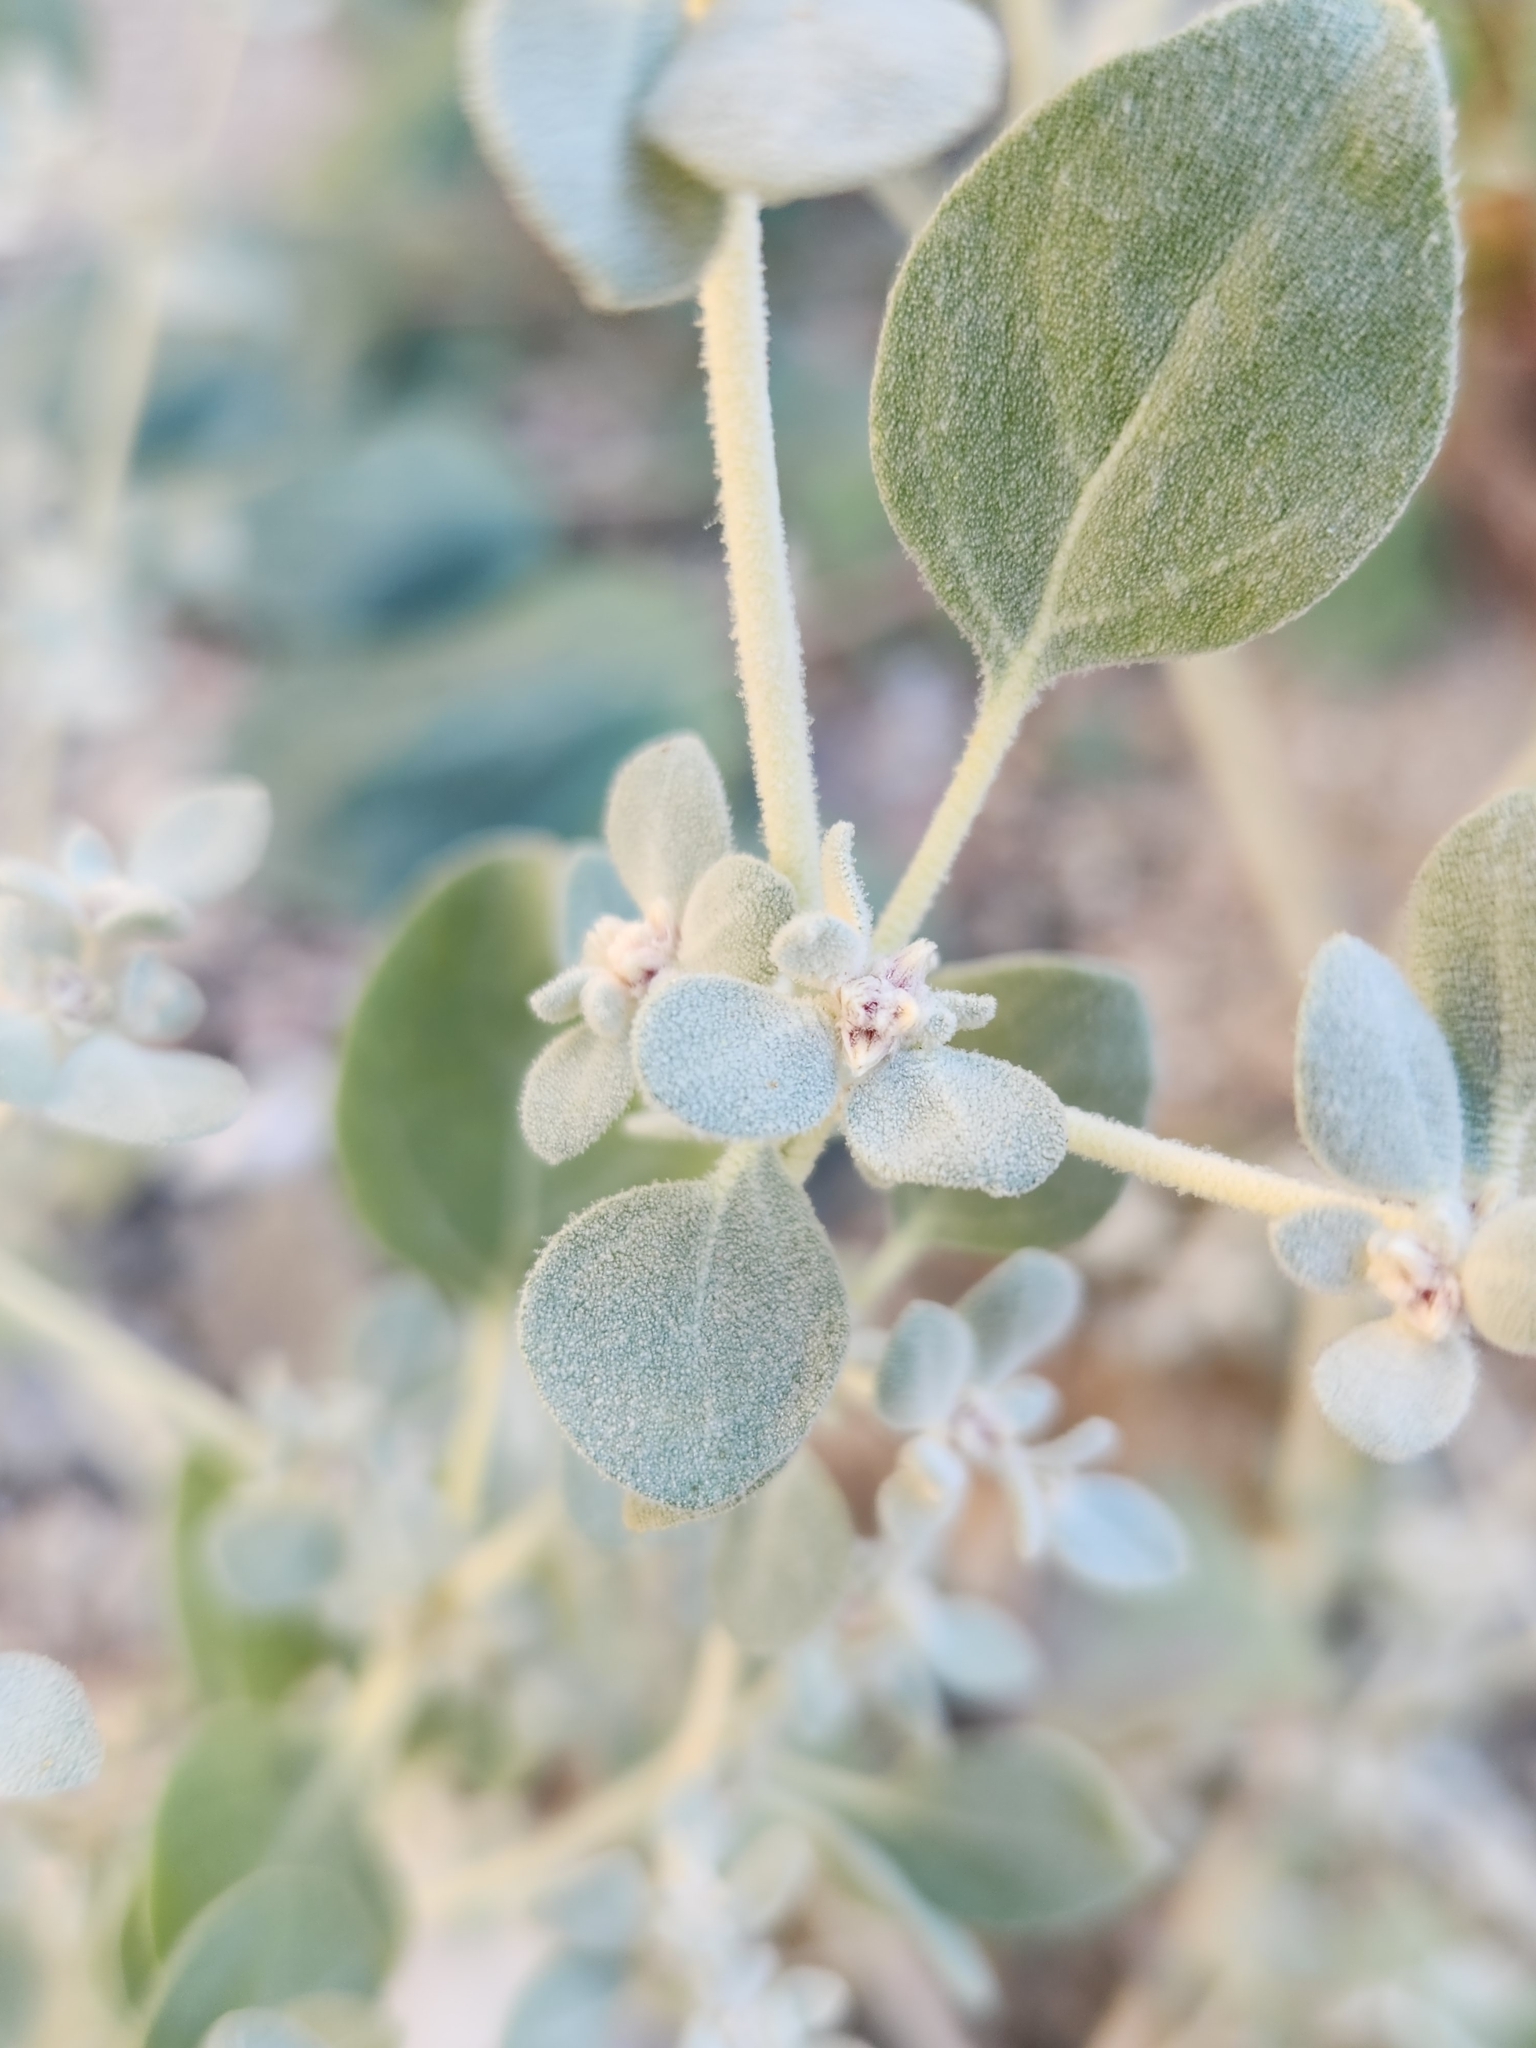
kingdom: Plantae
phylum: Tracheophyta
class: Magnoliopsida
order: Caryophyllales
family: Amaranthaceae
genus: Tidestromia
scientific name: Tidestromia suffruticosa
